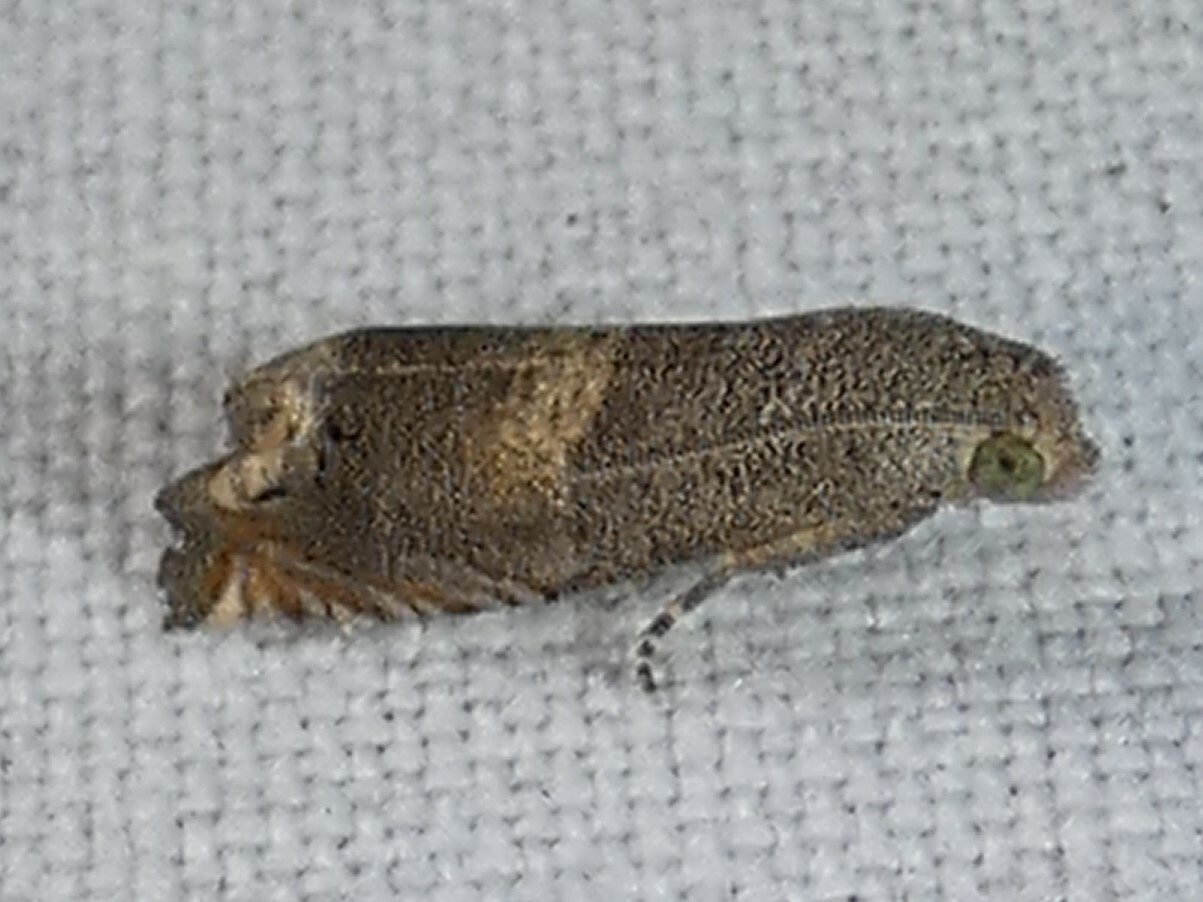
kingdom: Animalia
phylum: Arthropoda
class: Insecta
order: Lepidoptera
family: Tortricidae
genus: Epiblema
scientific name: Epiblema strenuana
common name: Ragweed borer moth
